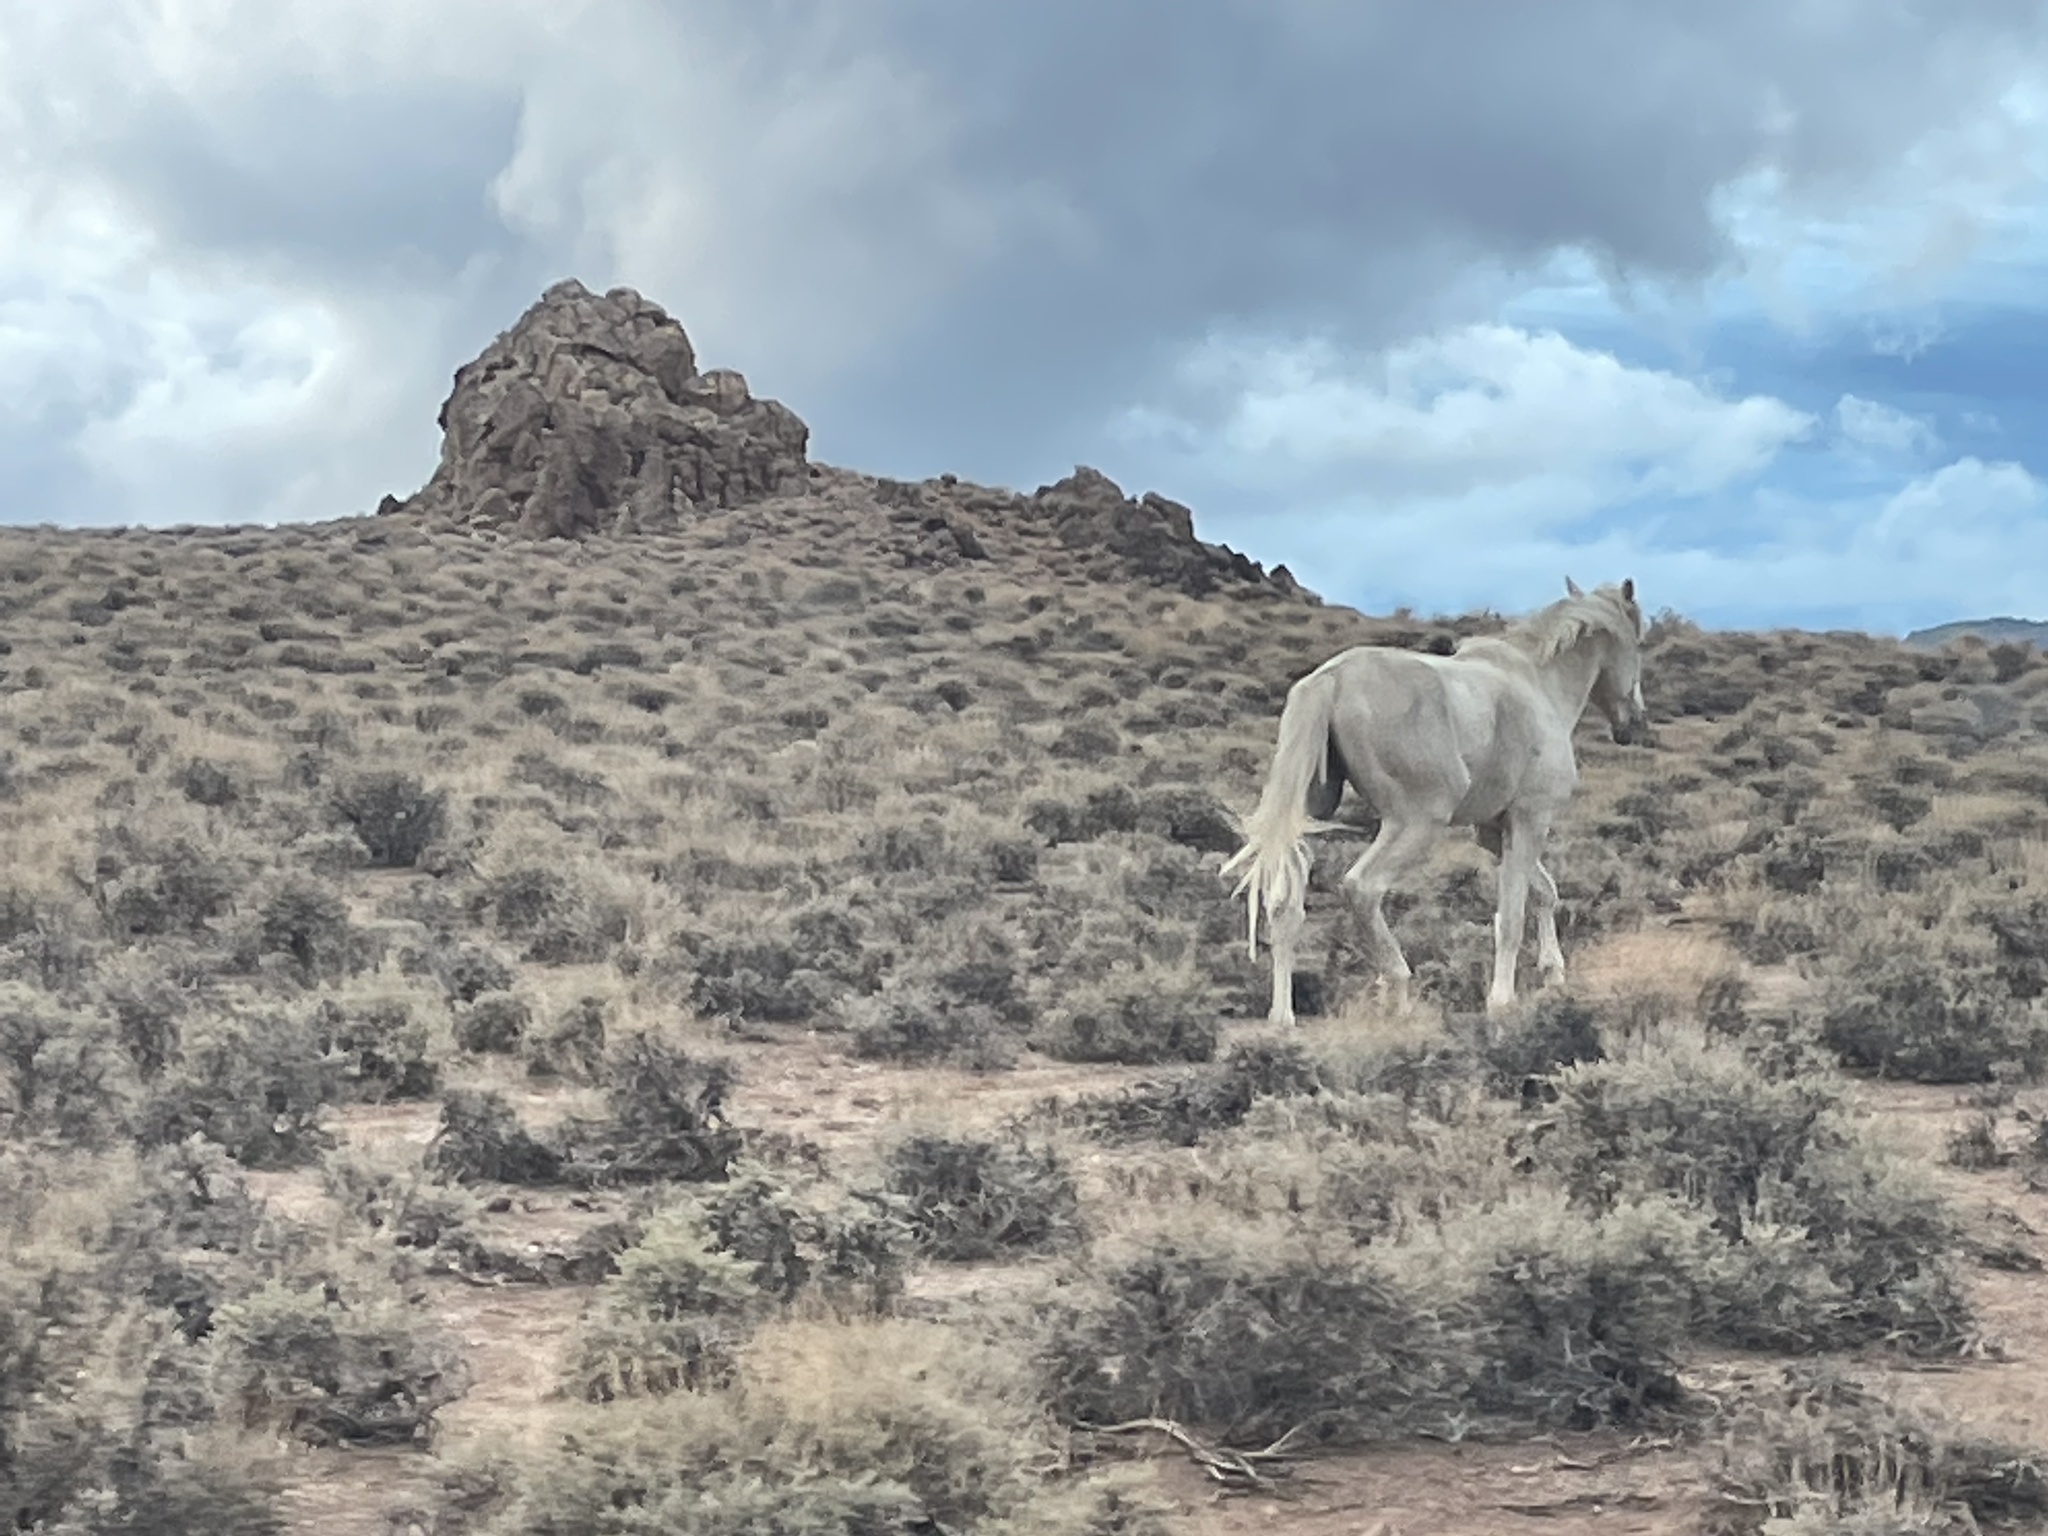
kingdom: Animalia
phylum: Chordata
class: Mammalia
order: Perissodactyla
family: Equidae
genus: Equus
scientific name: Equus caballus
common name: Horse
